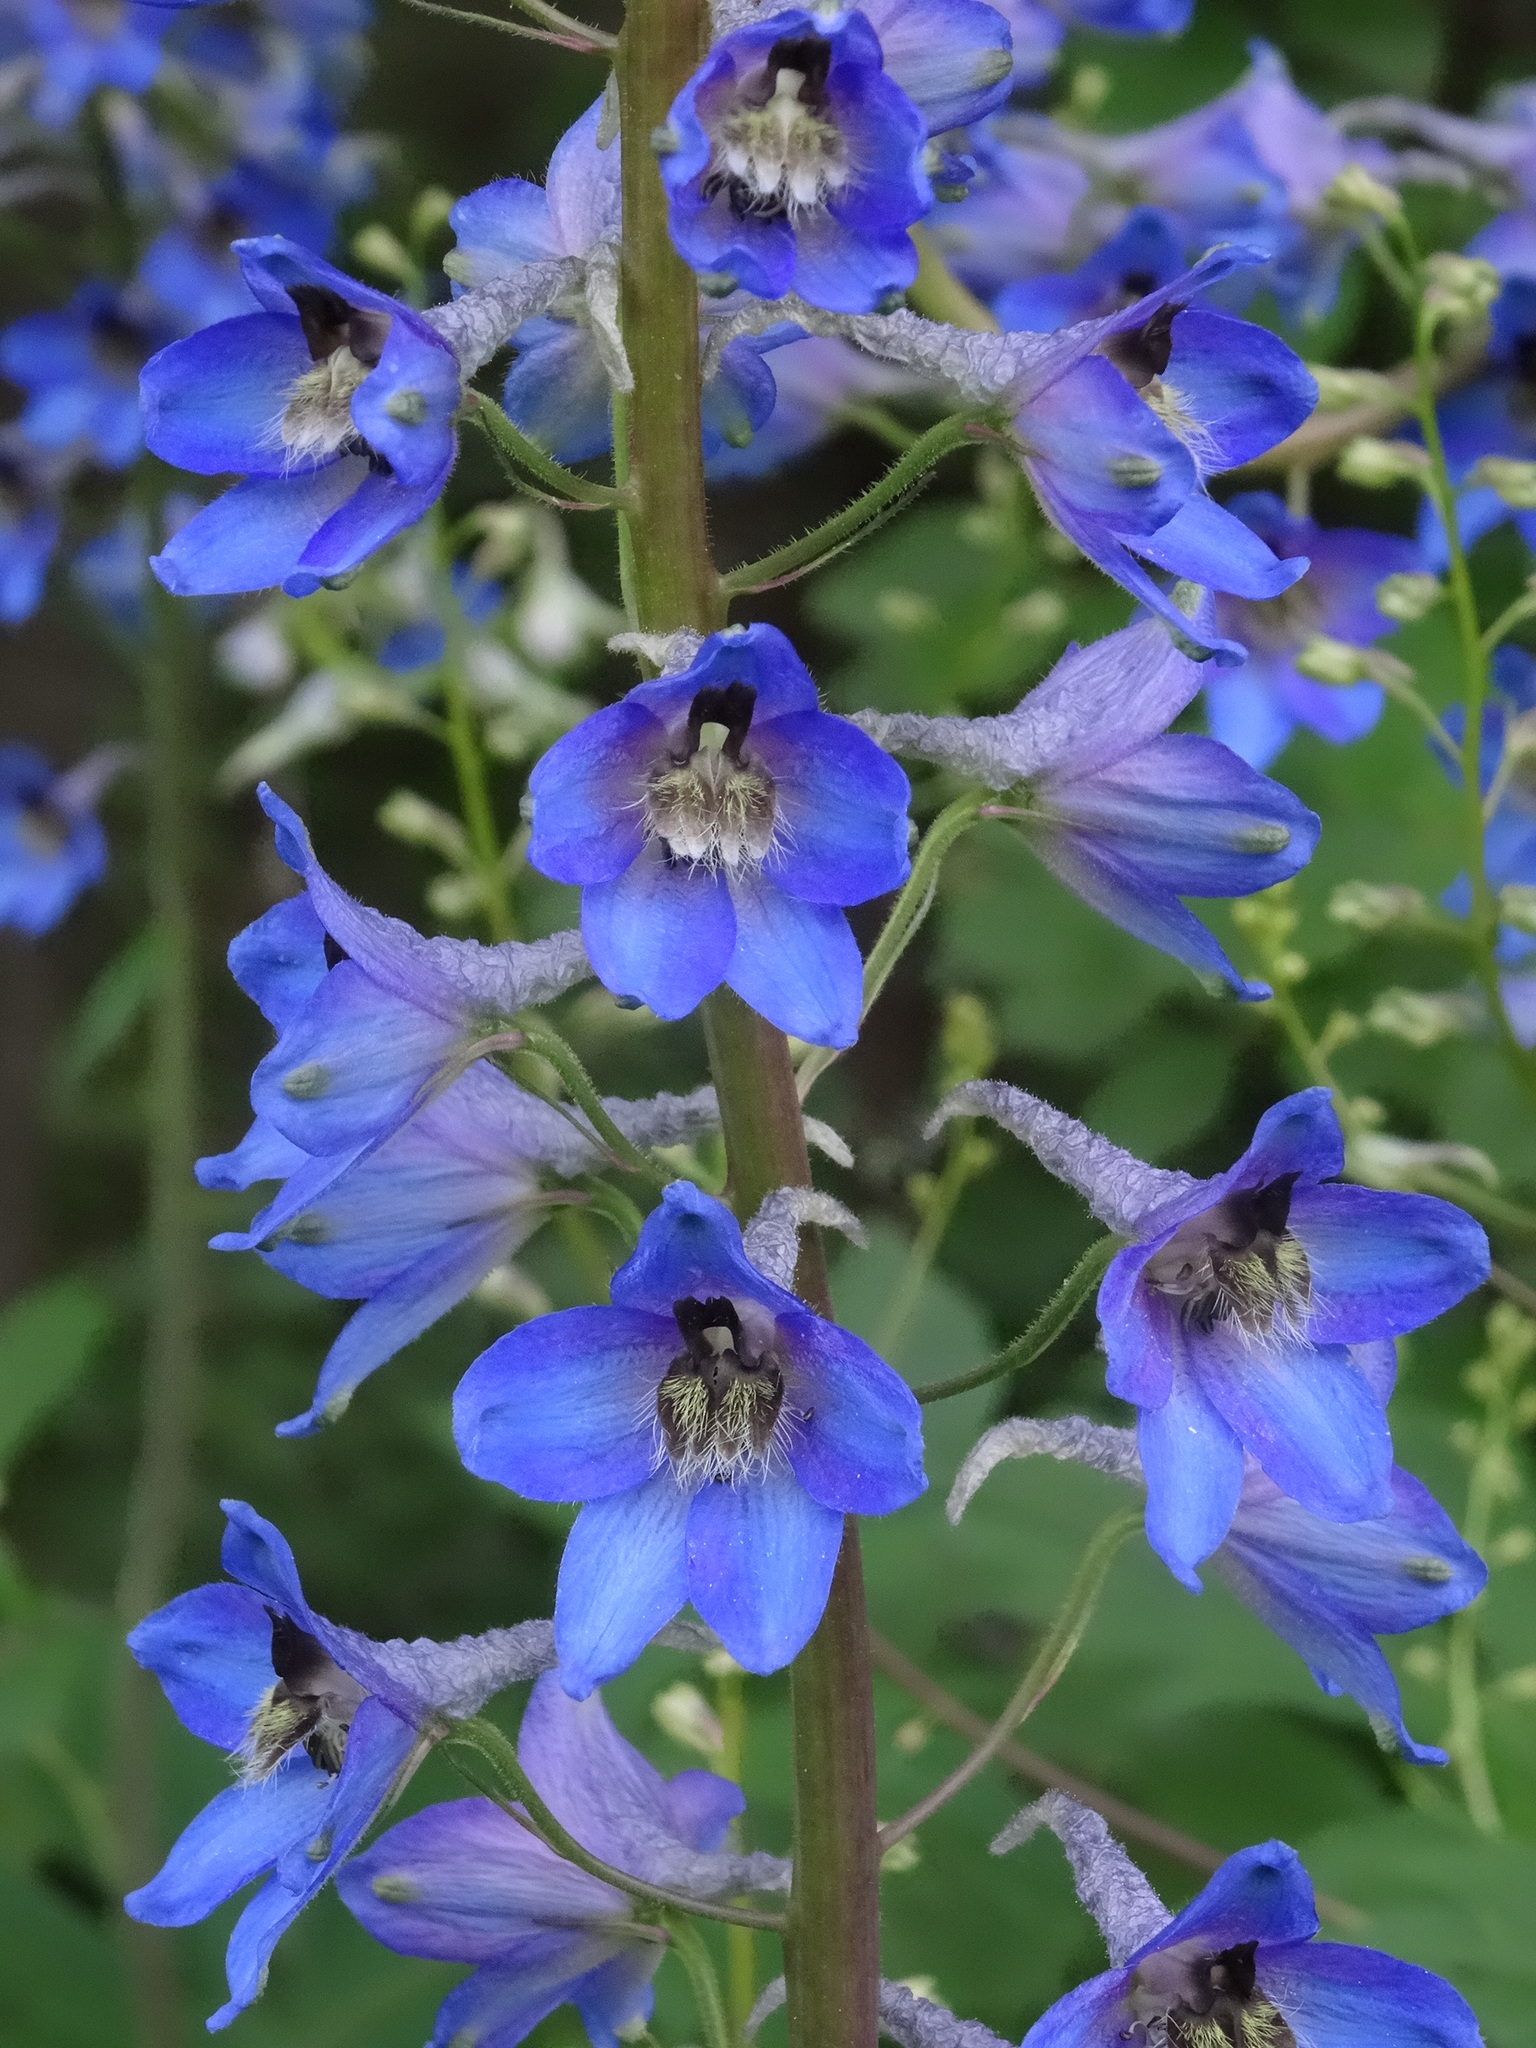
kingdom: Plantae
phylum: Tracheophyta
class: Magnoliopsida
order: Ranunculales
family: Ranunculaceae
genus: Delphinium
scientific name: Delphinium elatum
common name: Candle larkspur
